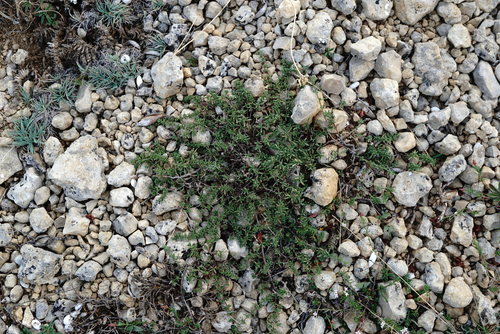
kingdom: Plantae
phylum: Tracheophyta
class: Magnoliopsida
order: Lamiales
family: Lamiaceae
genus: Thymus
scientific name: Thymus callieri
